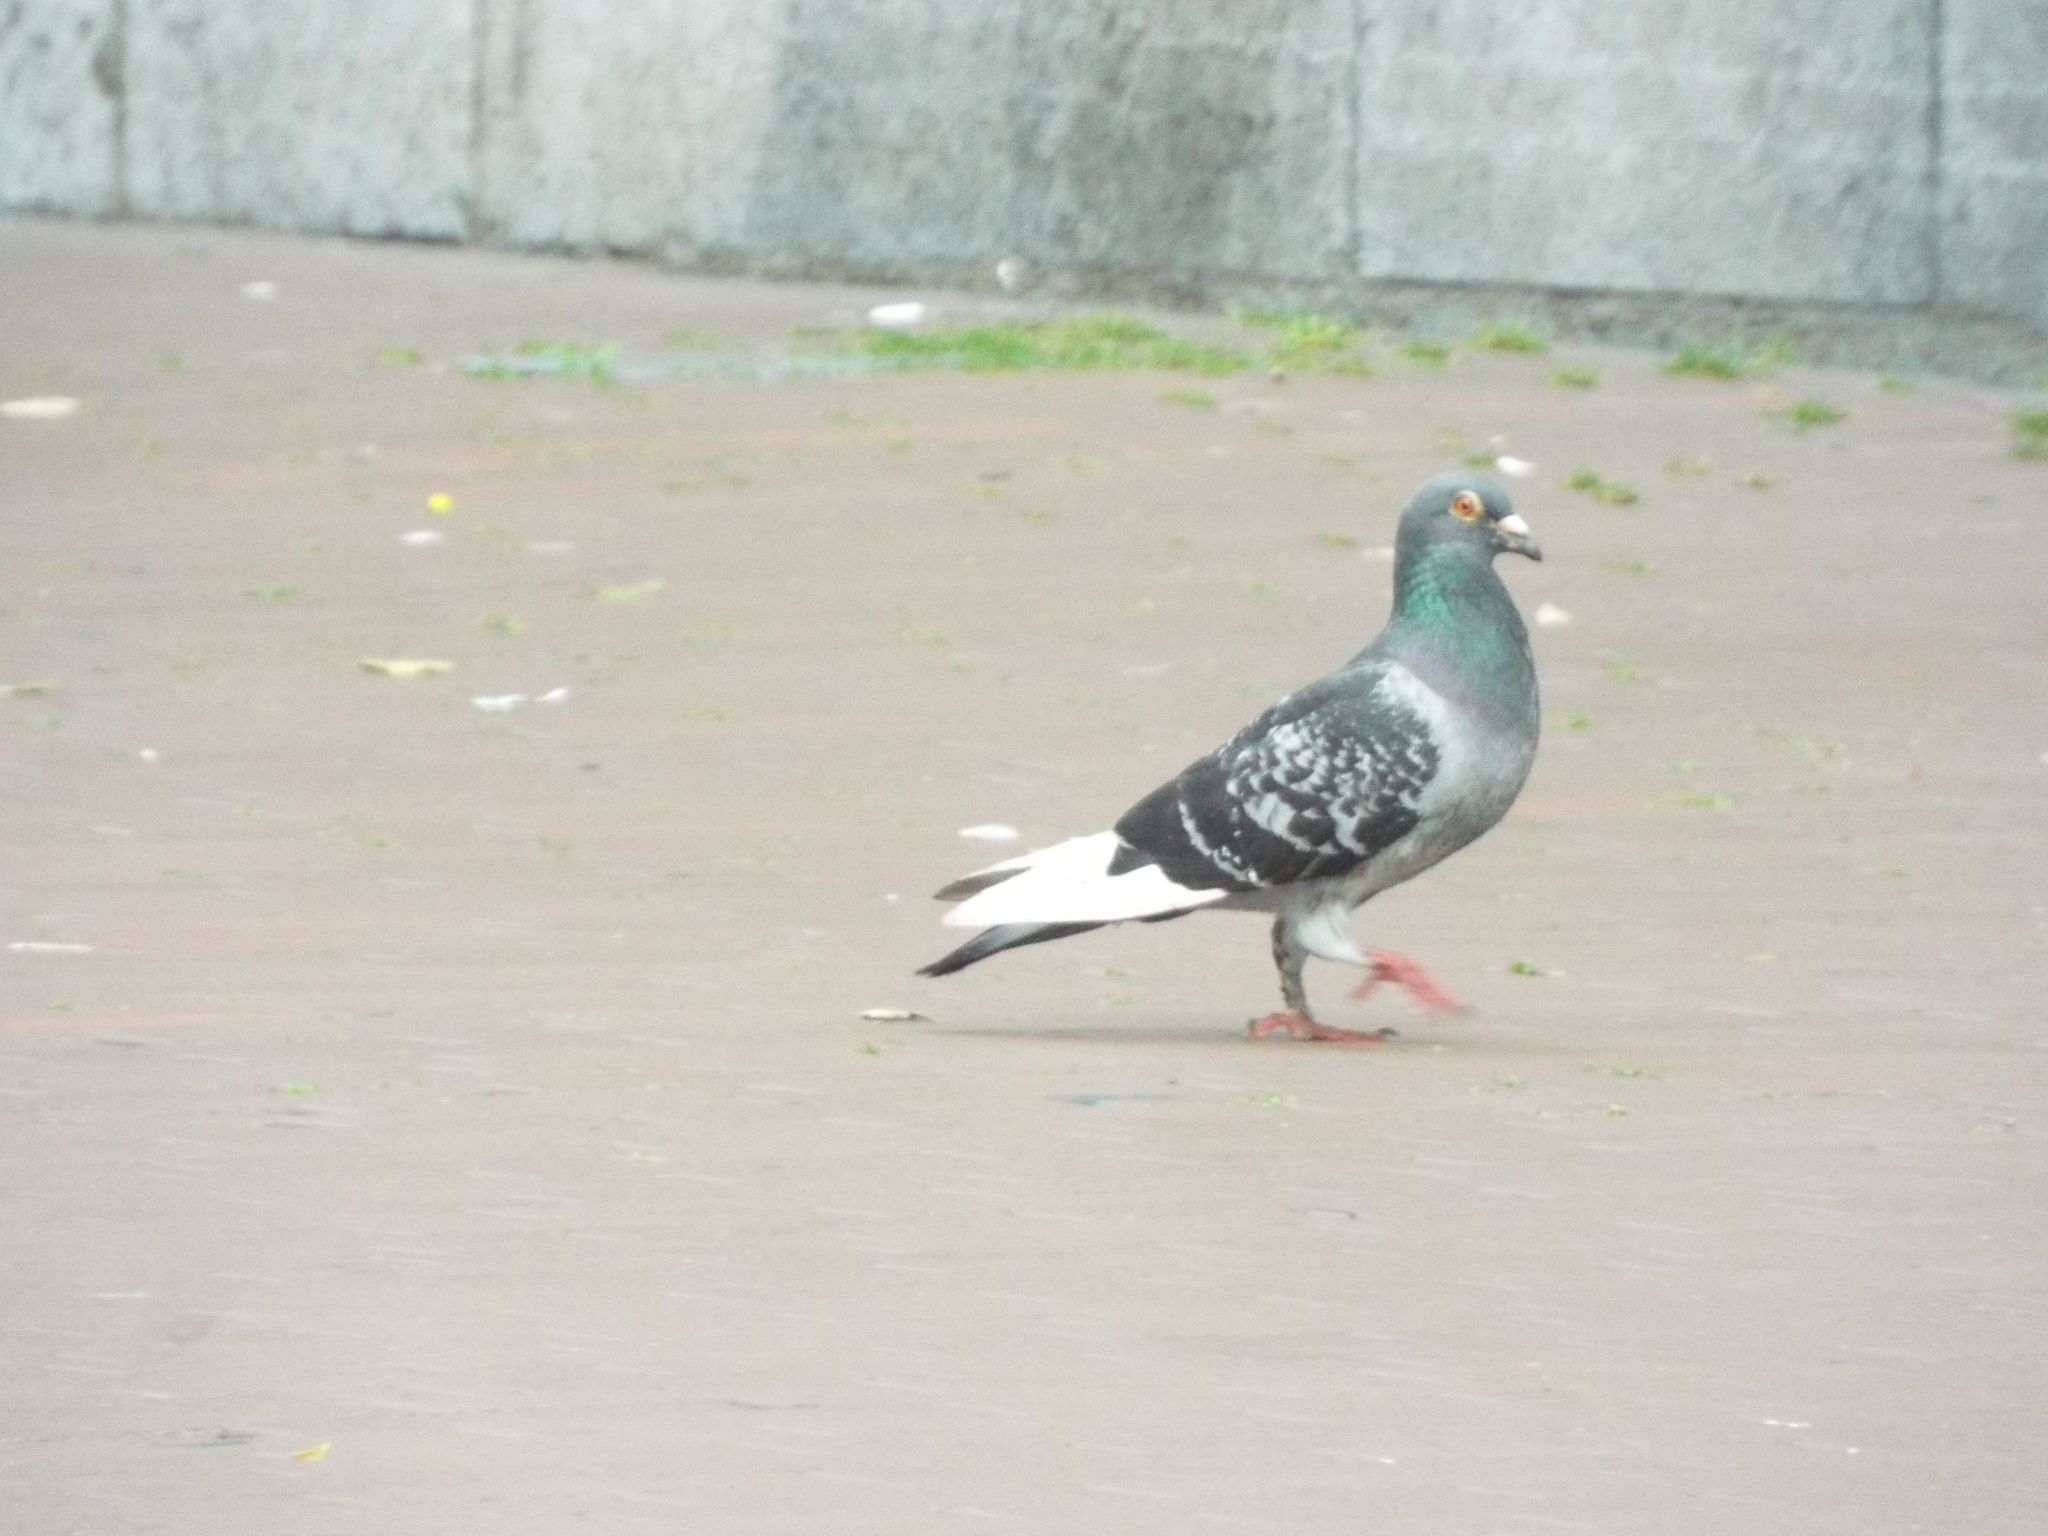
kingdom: Animalia
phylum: Chordata
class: Aves
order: Columbiformes
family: Columbidae
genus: Columba
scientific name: Columba livia
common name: Rock pigeon
